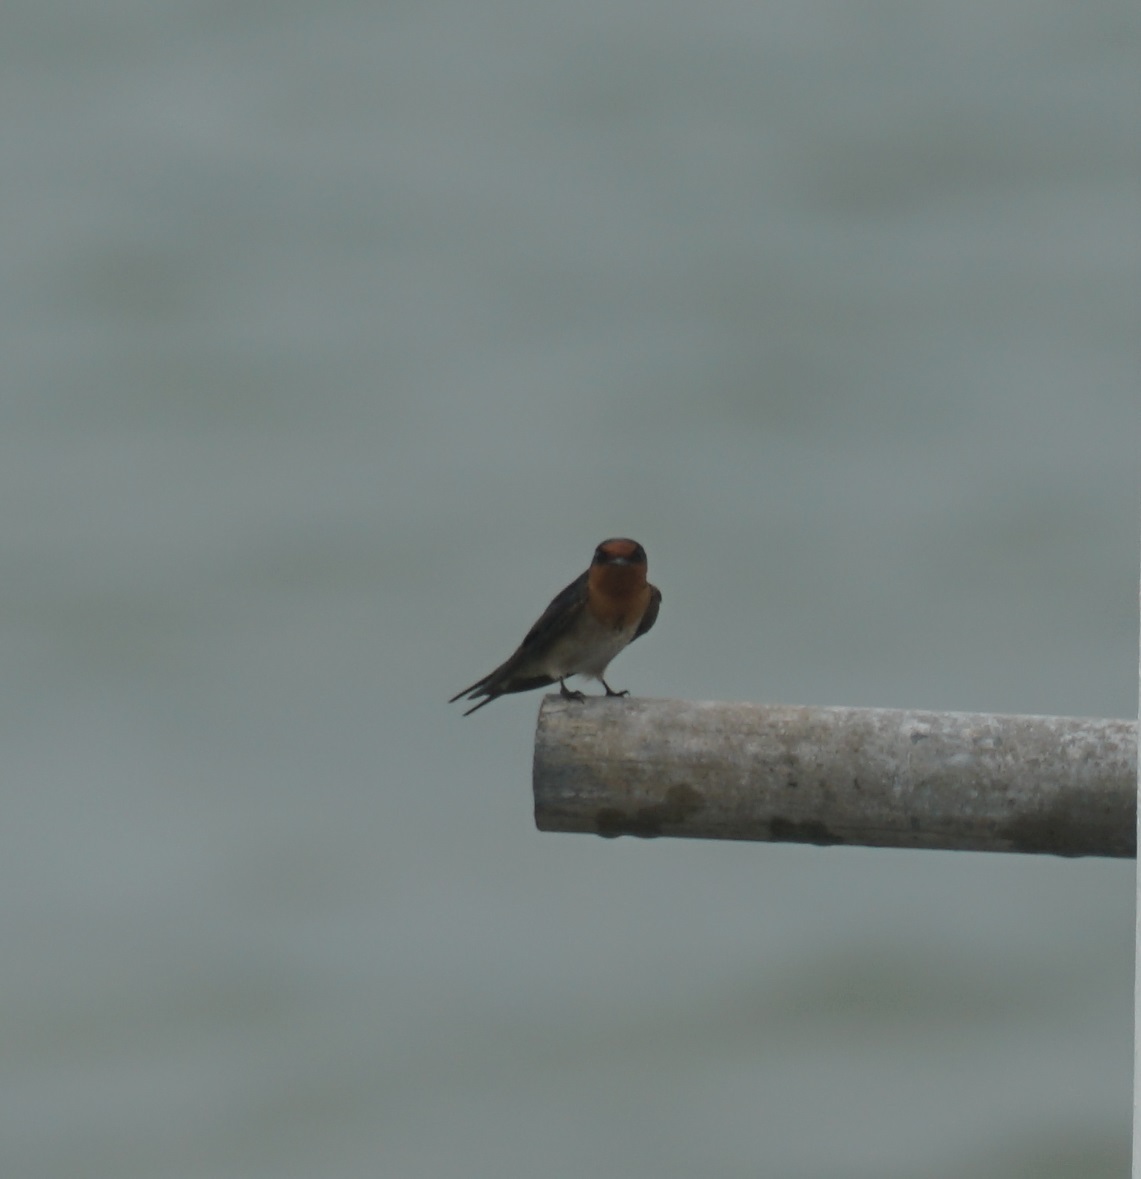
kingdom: Animalia
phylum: Chordata
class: Aves
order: Passeriformes
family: Hirundinidae
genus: Hirundo
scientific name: Hirundo neoxena
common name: Welcome swallow
